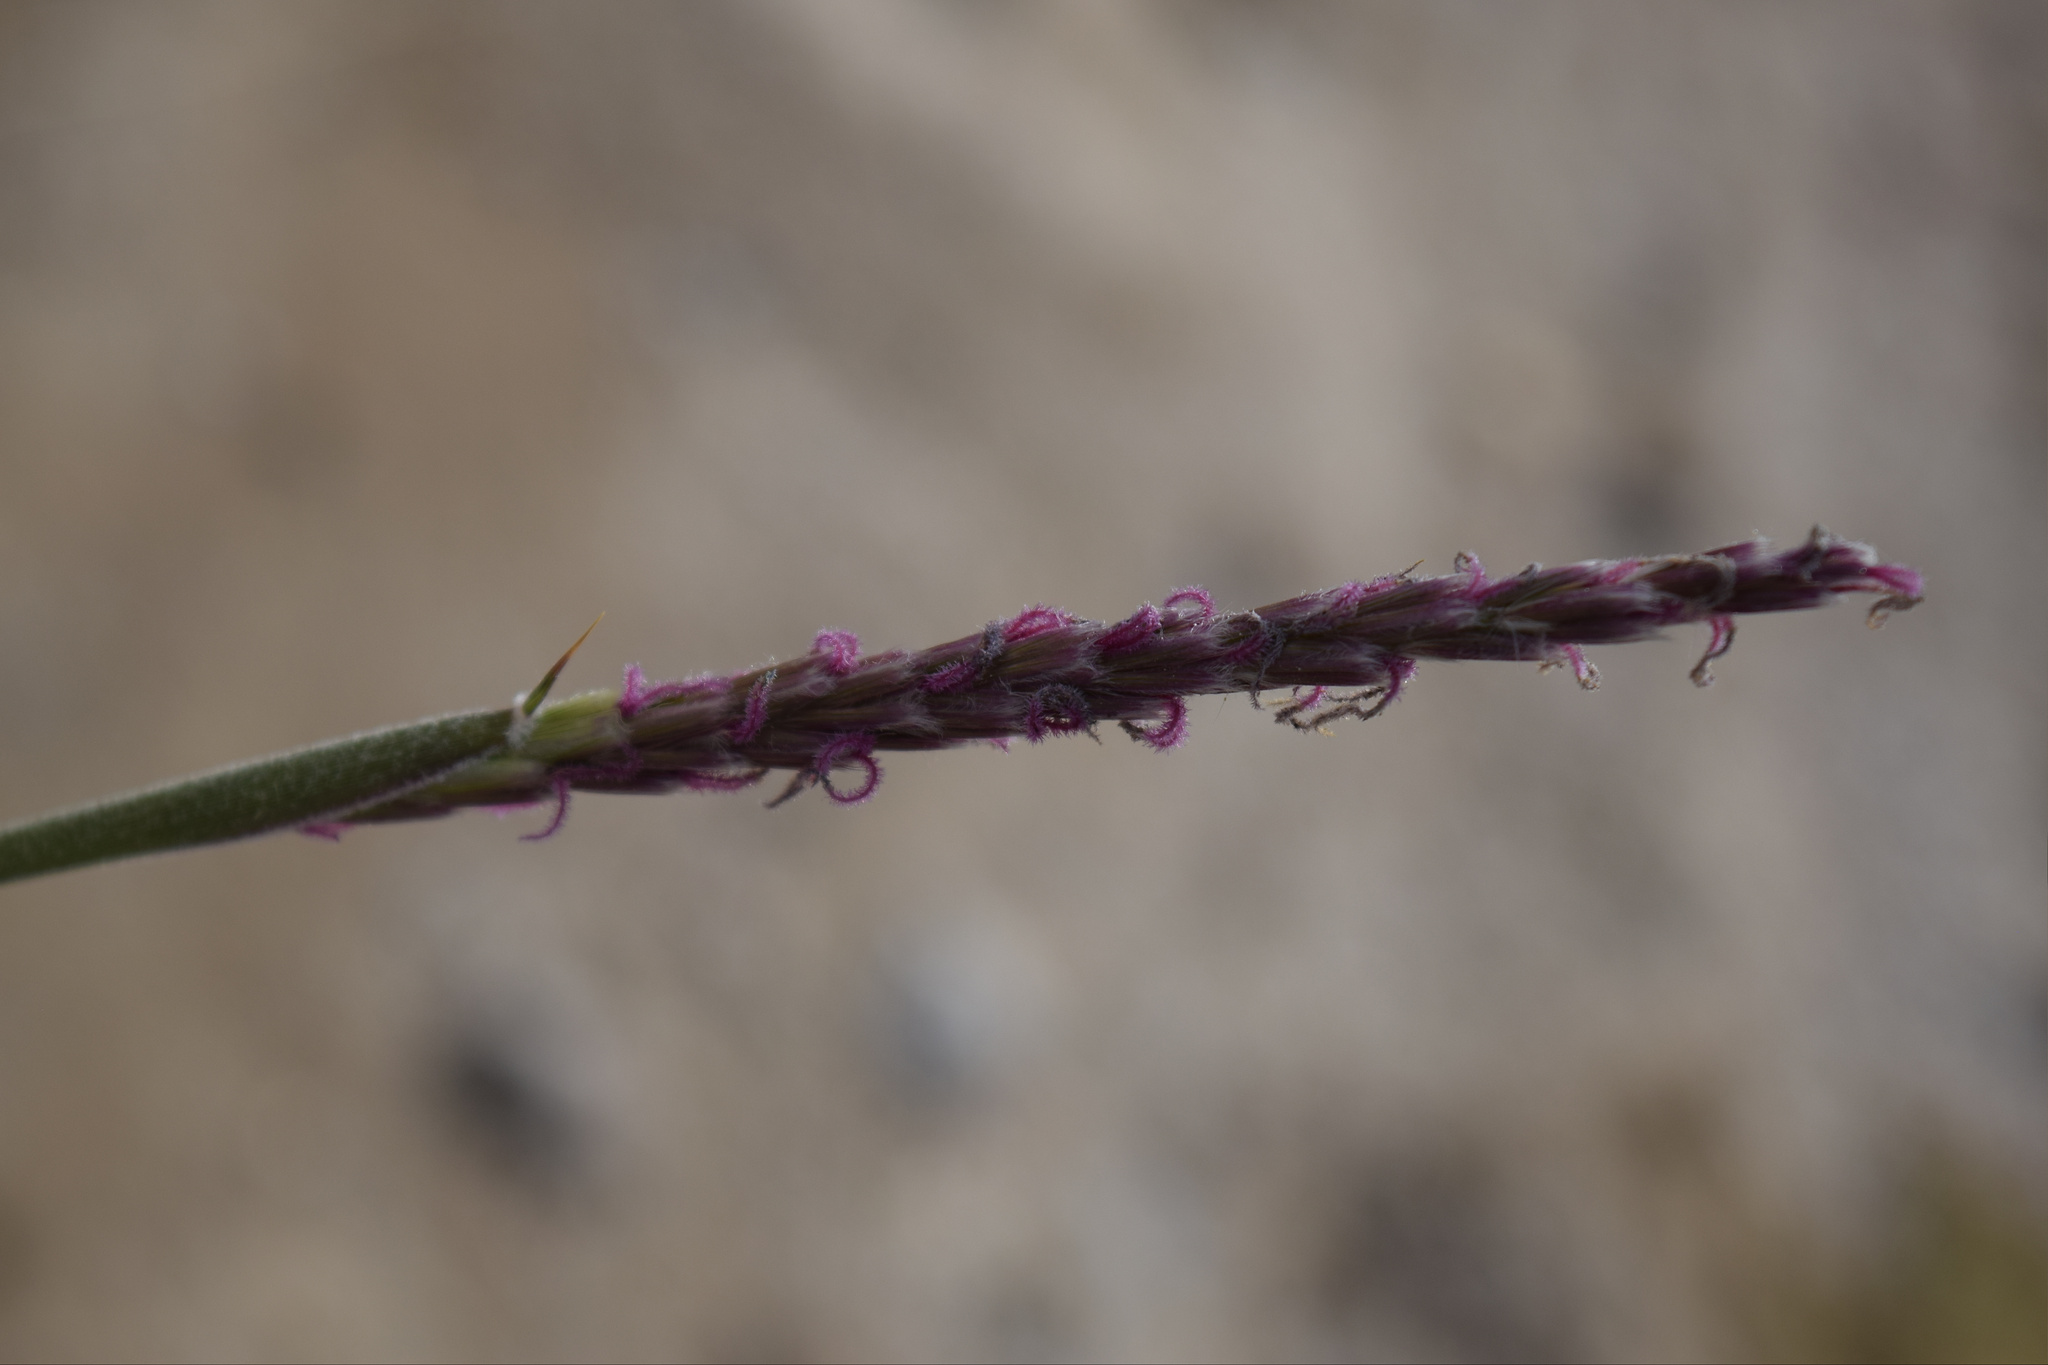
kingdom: Plantae
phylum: Tracheophyta
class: Liliopsida
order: Poales
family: Poaceae
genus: Hilaria
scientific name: Hilaria rigida
